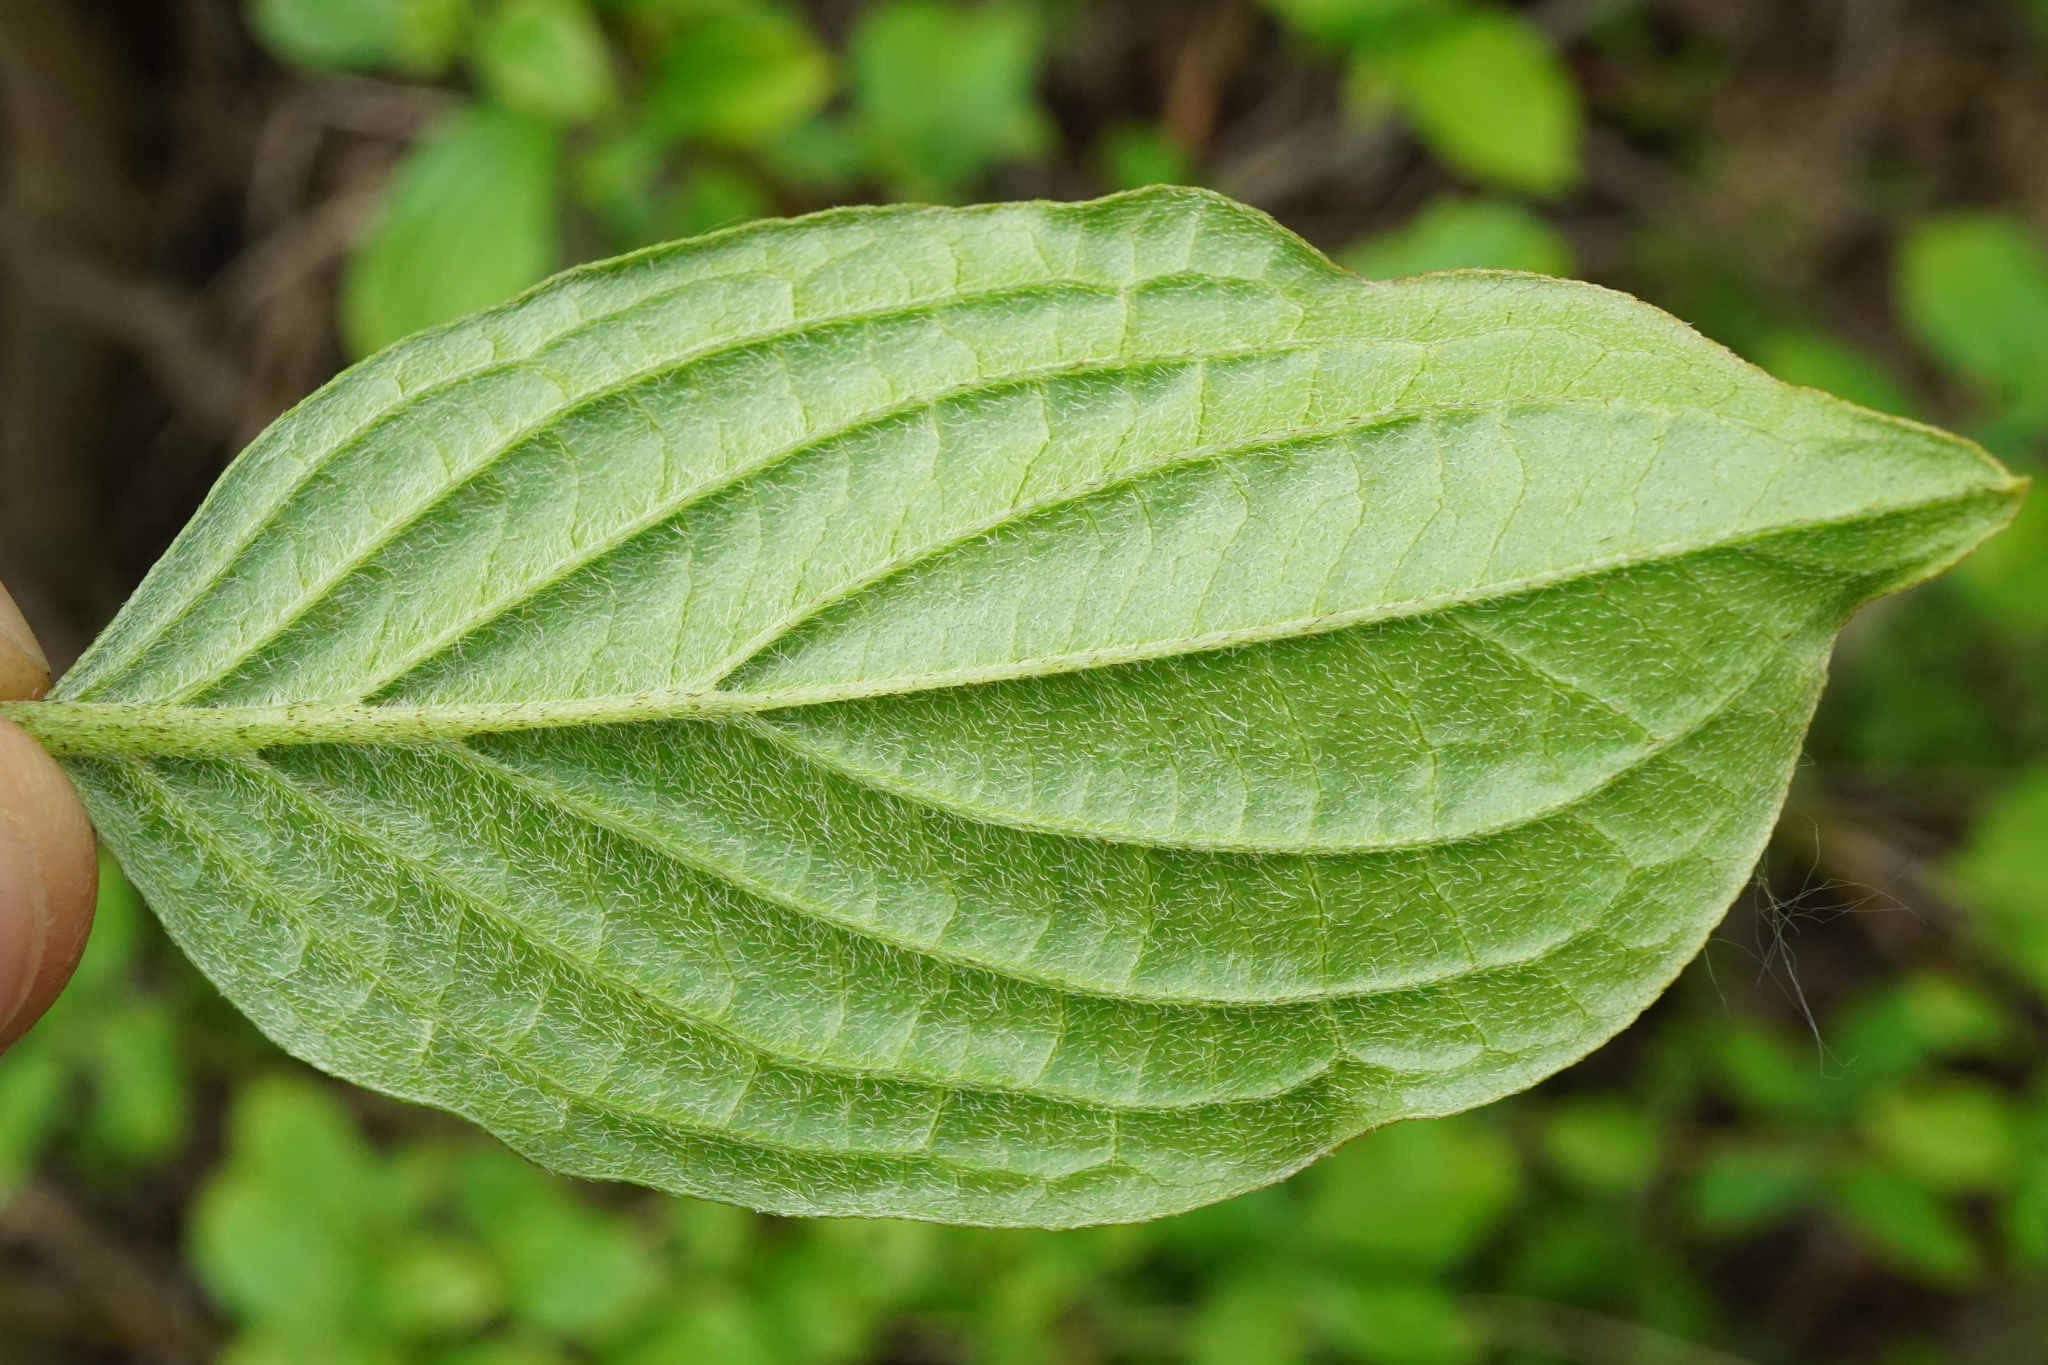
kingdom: Plantae
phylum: Tracheophyta
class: Magnoliopsida
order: Cornales
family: Cornaceae
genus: Cornus
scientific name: Cornus sanguinea
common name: Dogwood
